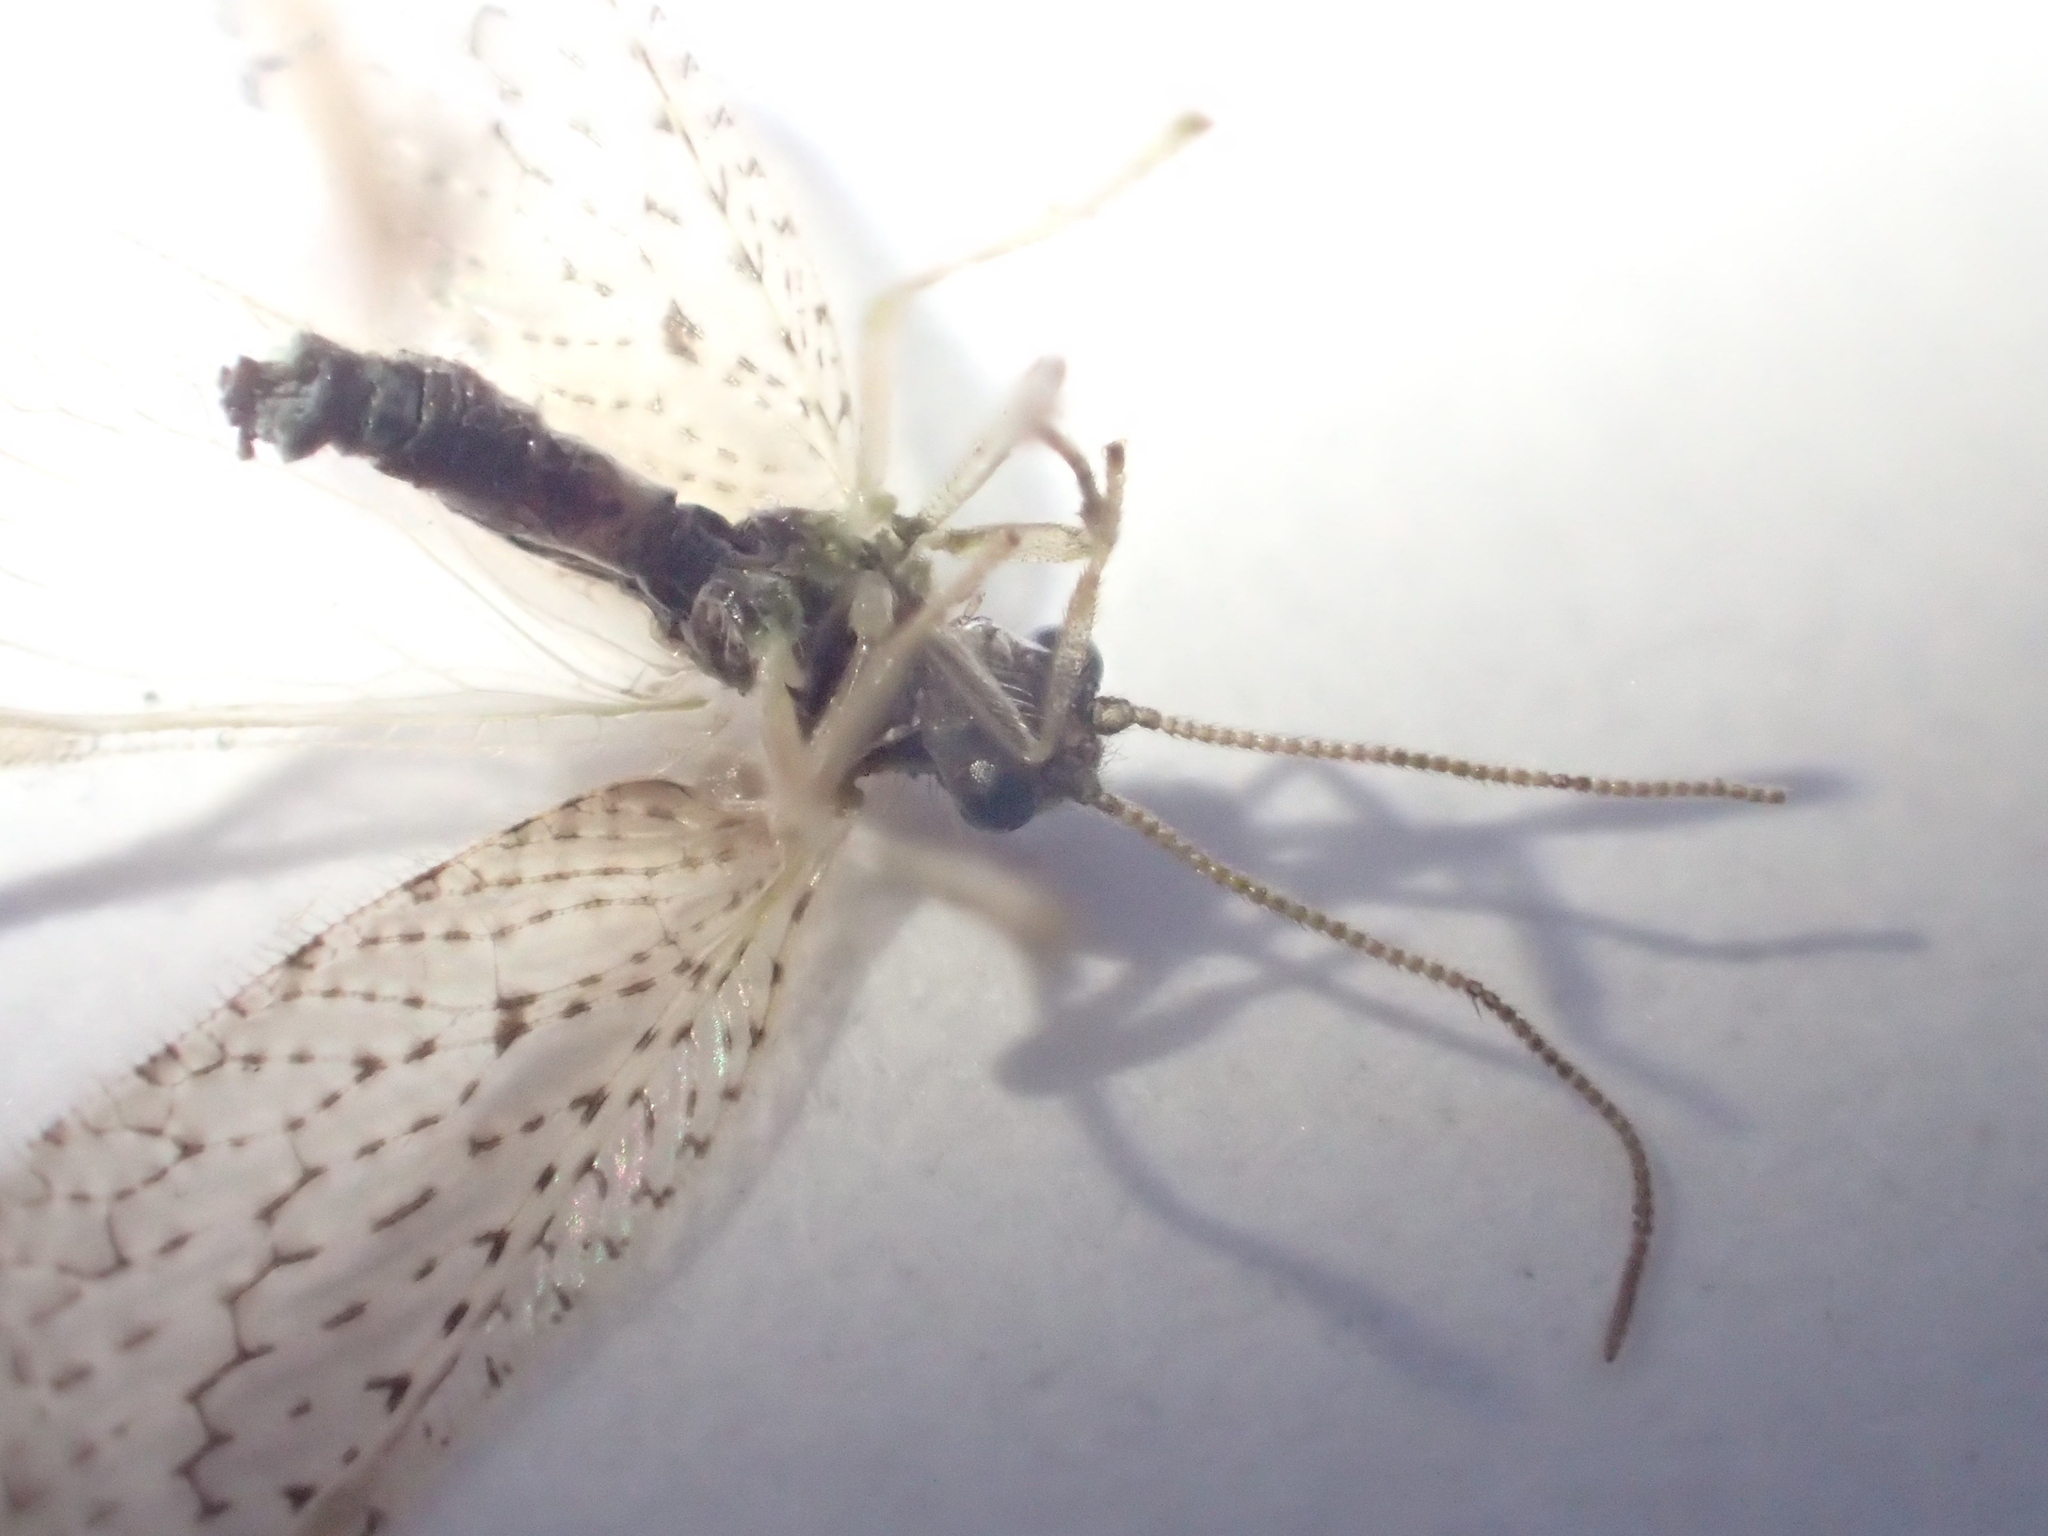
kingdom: Animalia
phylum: Arthropoda
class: Insecta
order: Neuroptera
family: Hemerobiidae
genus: Micromus
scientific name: Micromus tasmaniae
